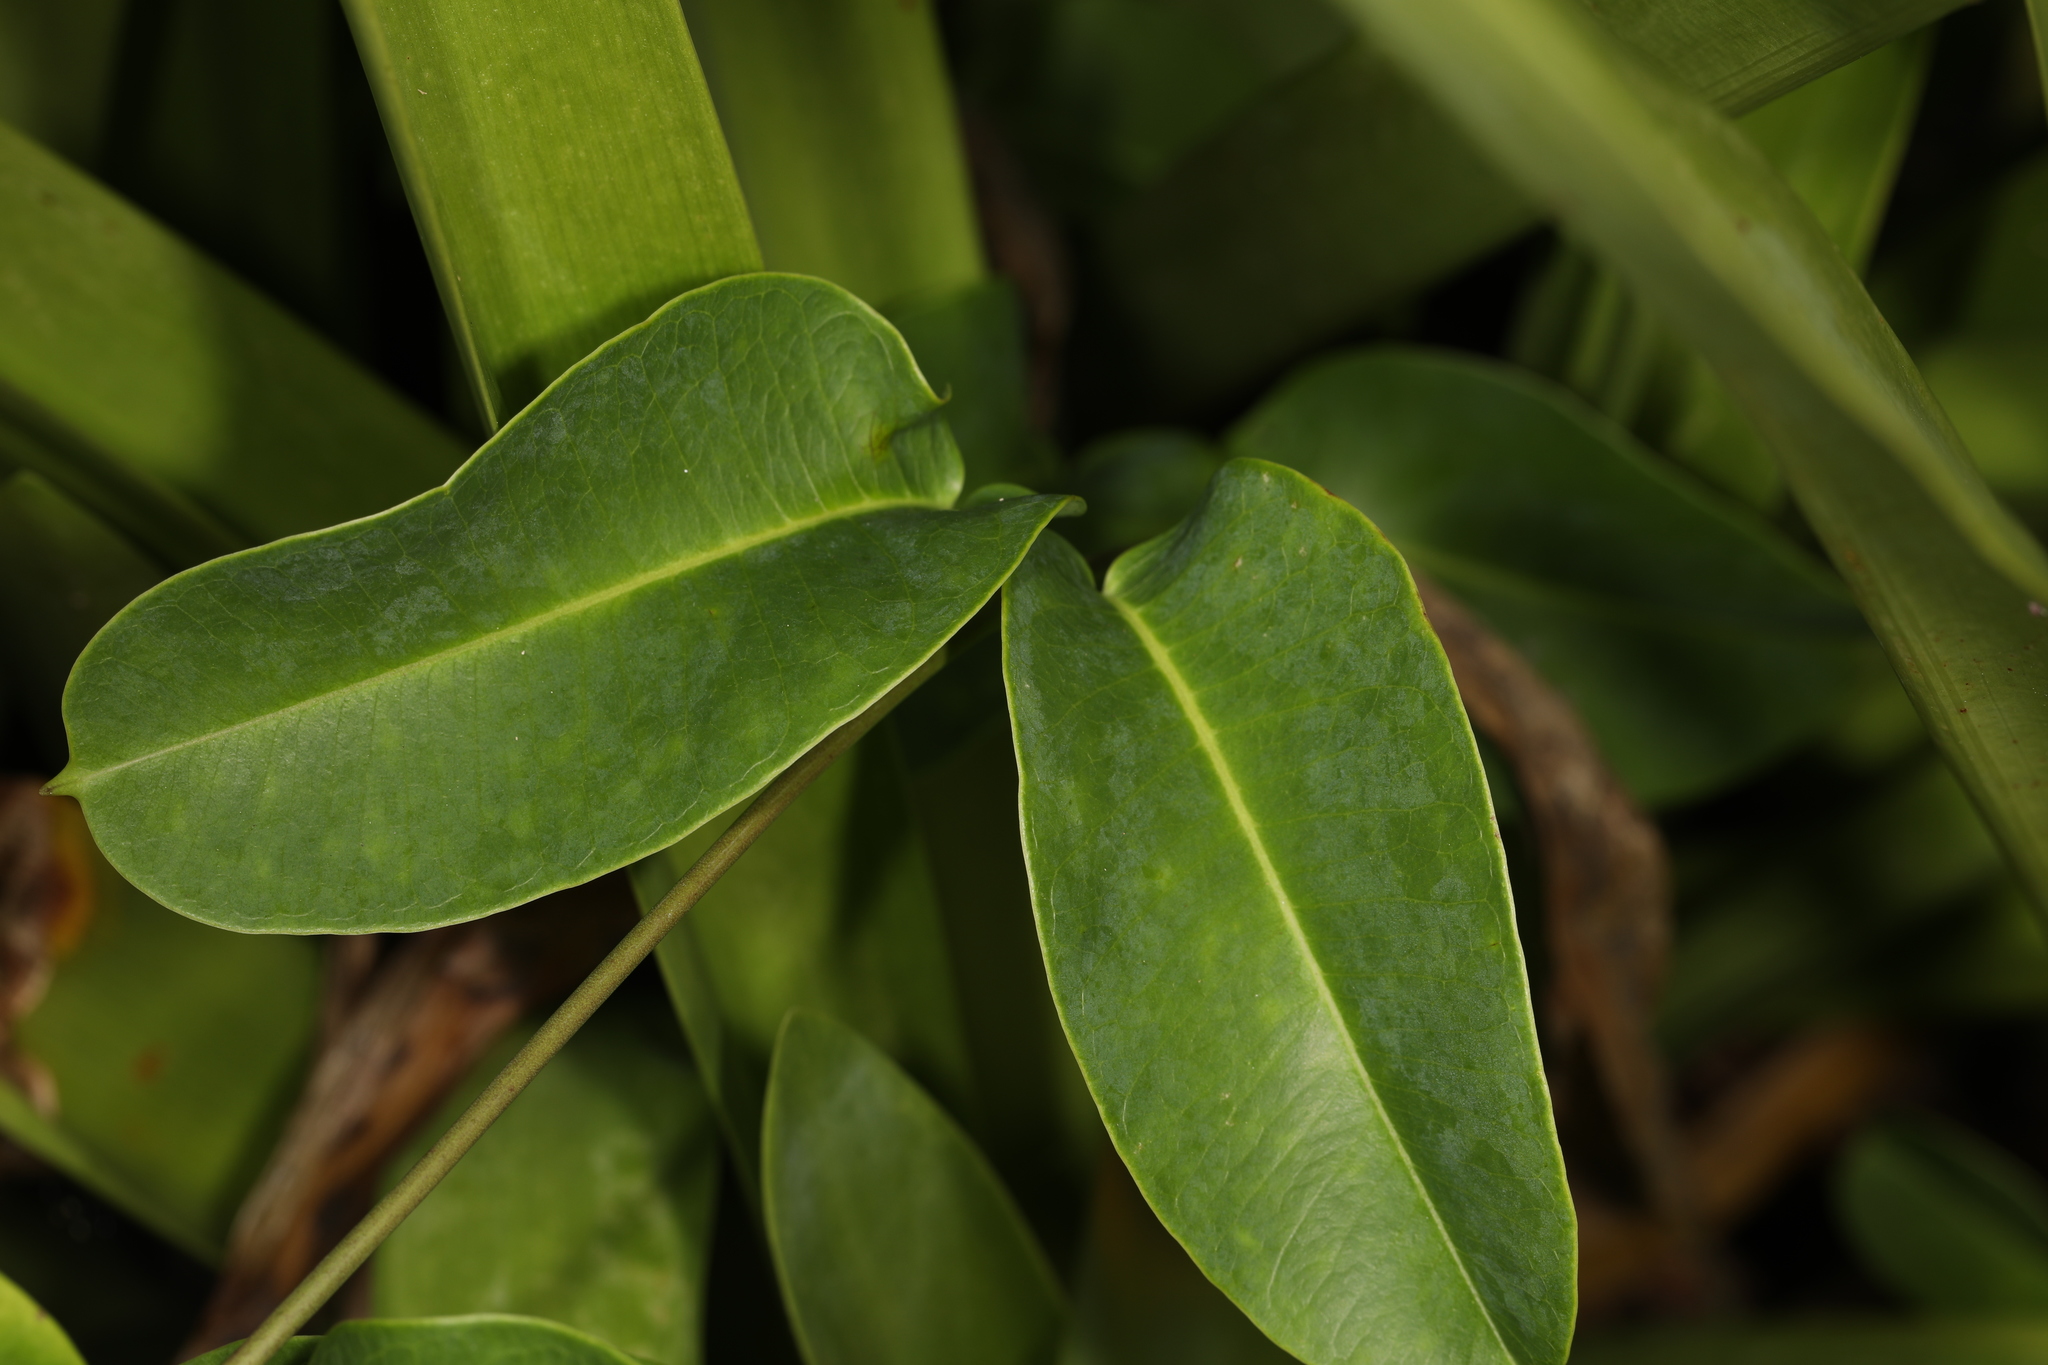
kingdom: Plantae
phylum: Tracheophyta
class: Magnoliopsida
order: Gentianales
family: Apocynaceae
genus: Echites
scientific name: Echites umbellatus
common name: Devil's potato
